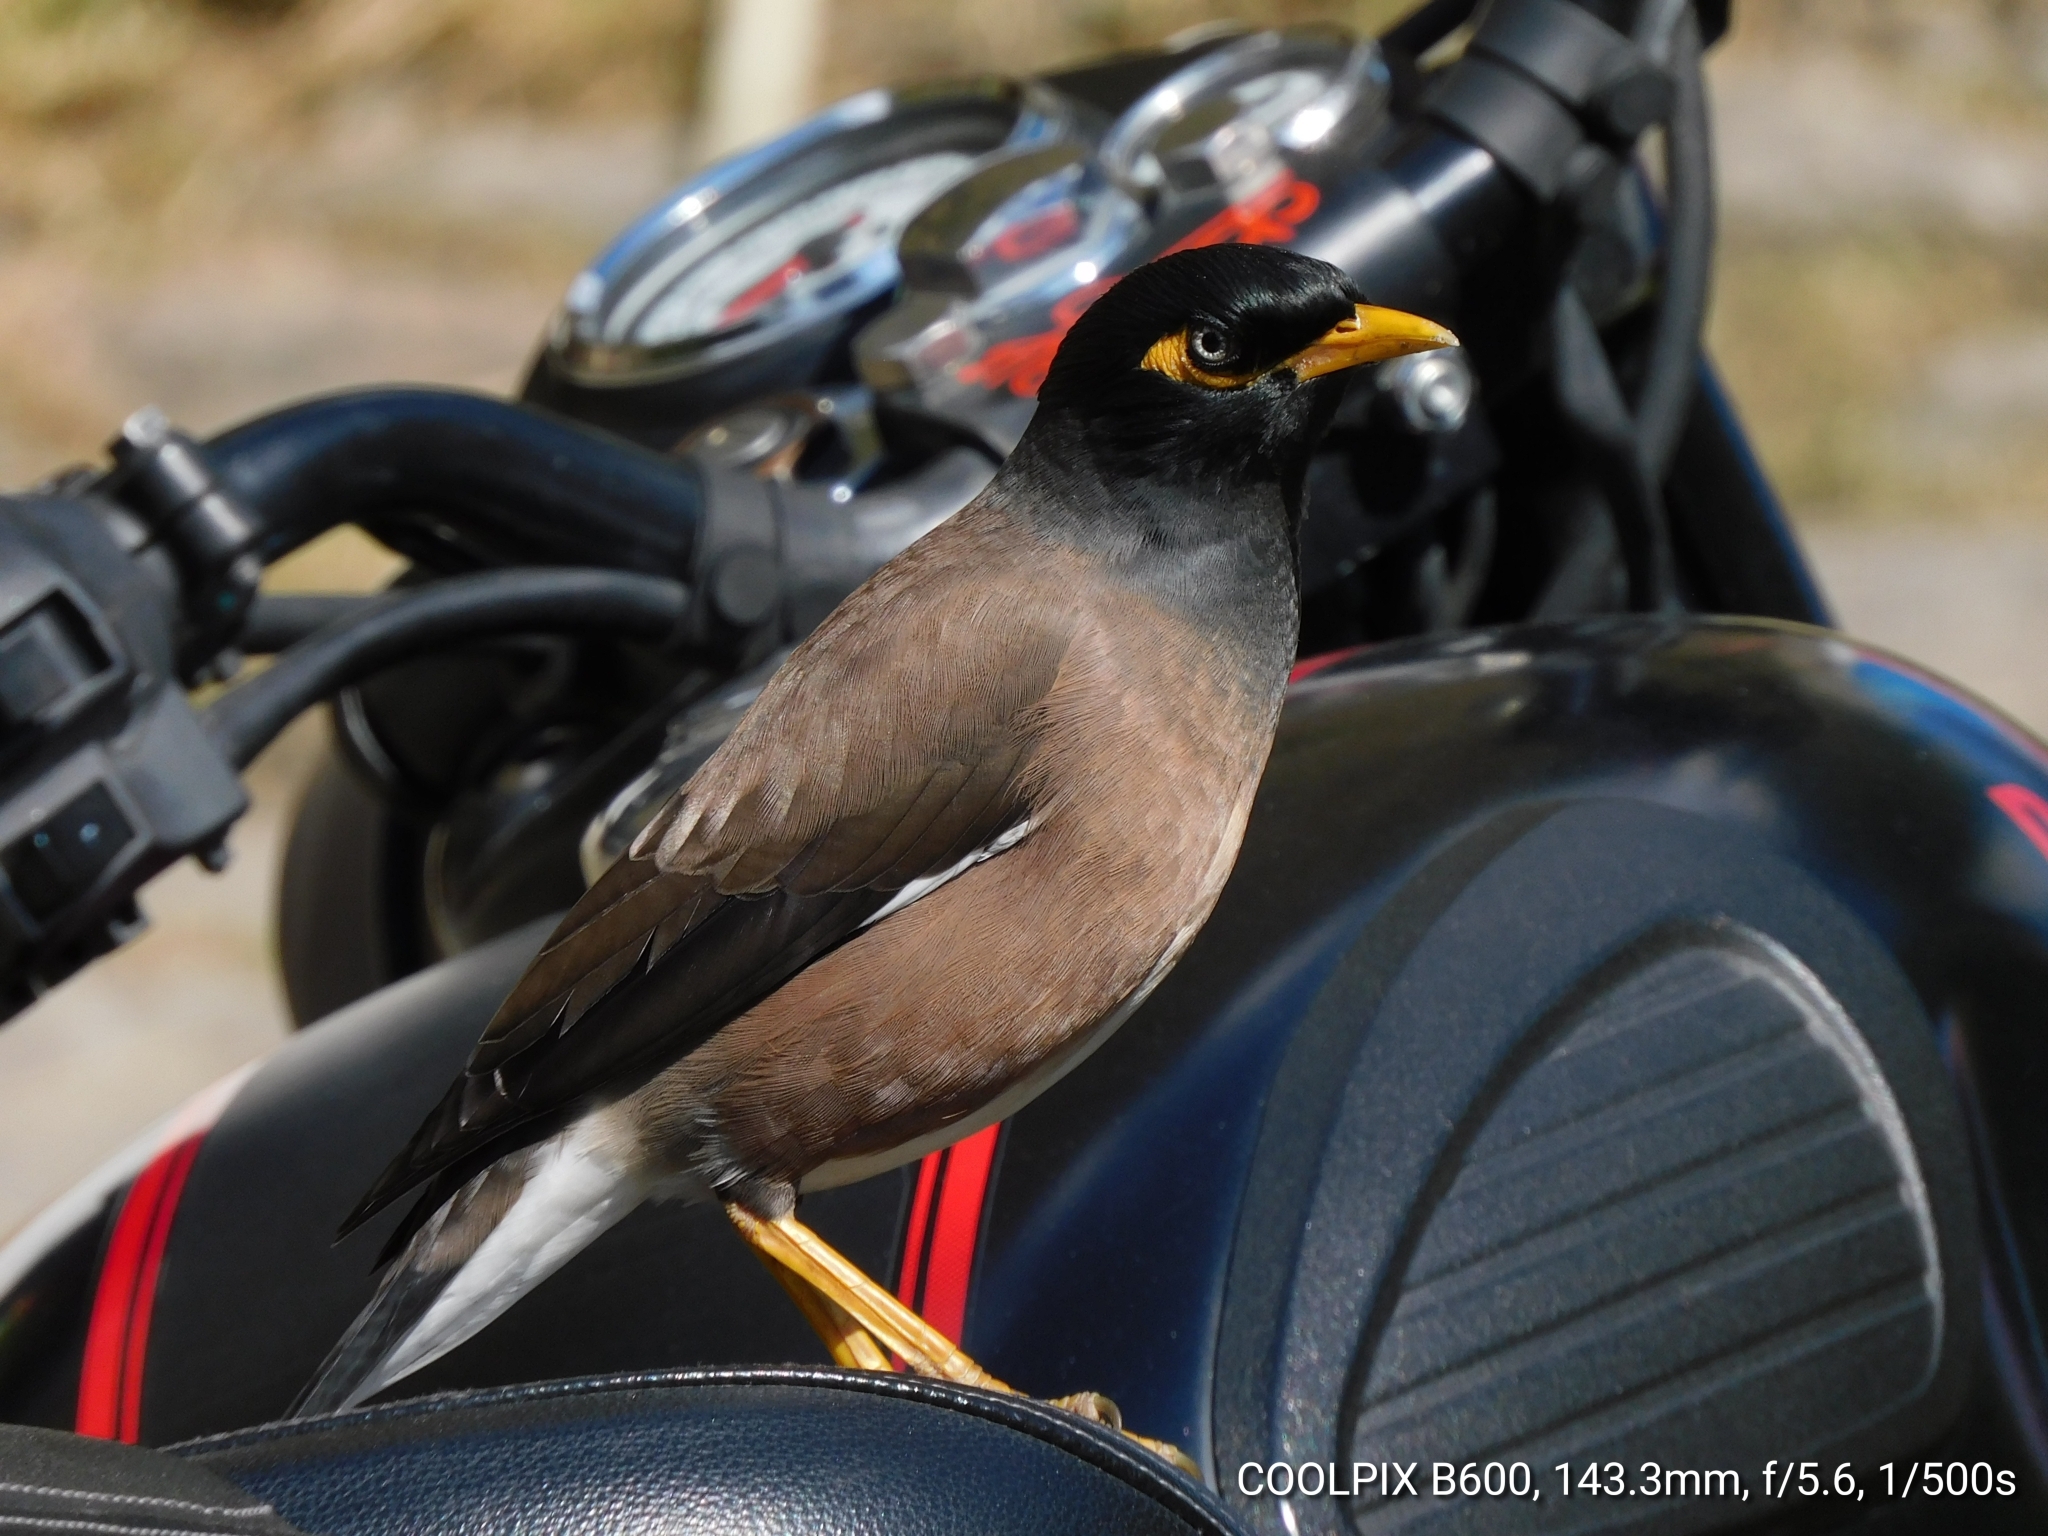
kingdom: Animalia
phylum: Chordata
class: Aves
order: Passeriformes
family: Sturnidae
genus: Acridotheres
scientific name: Acridotheres tristis
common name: Common myna
